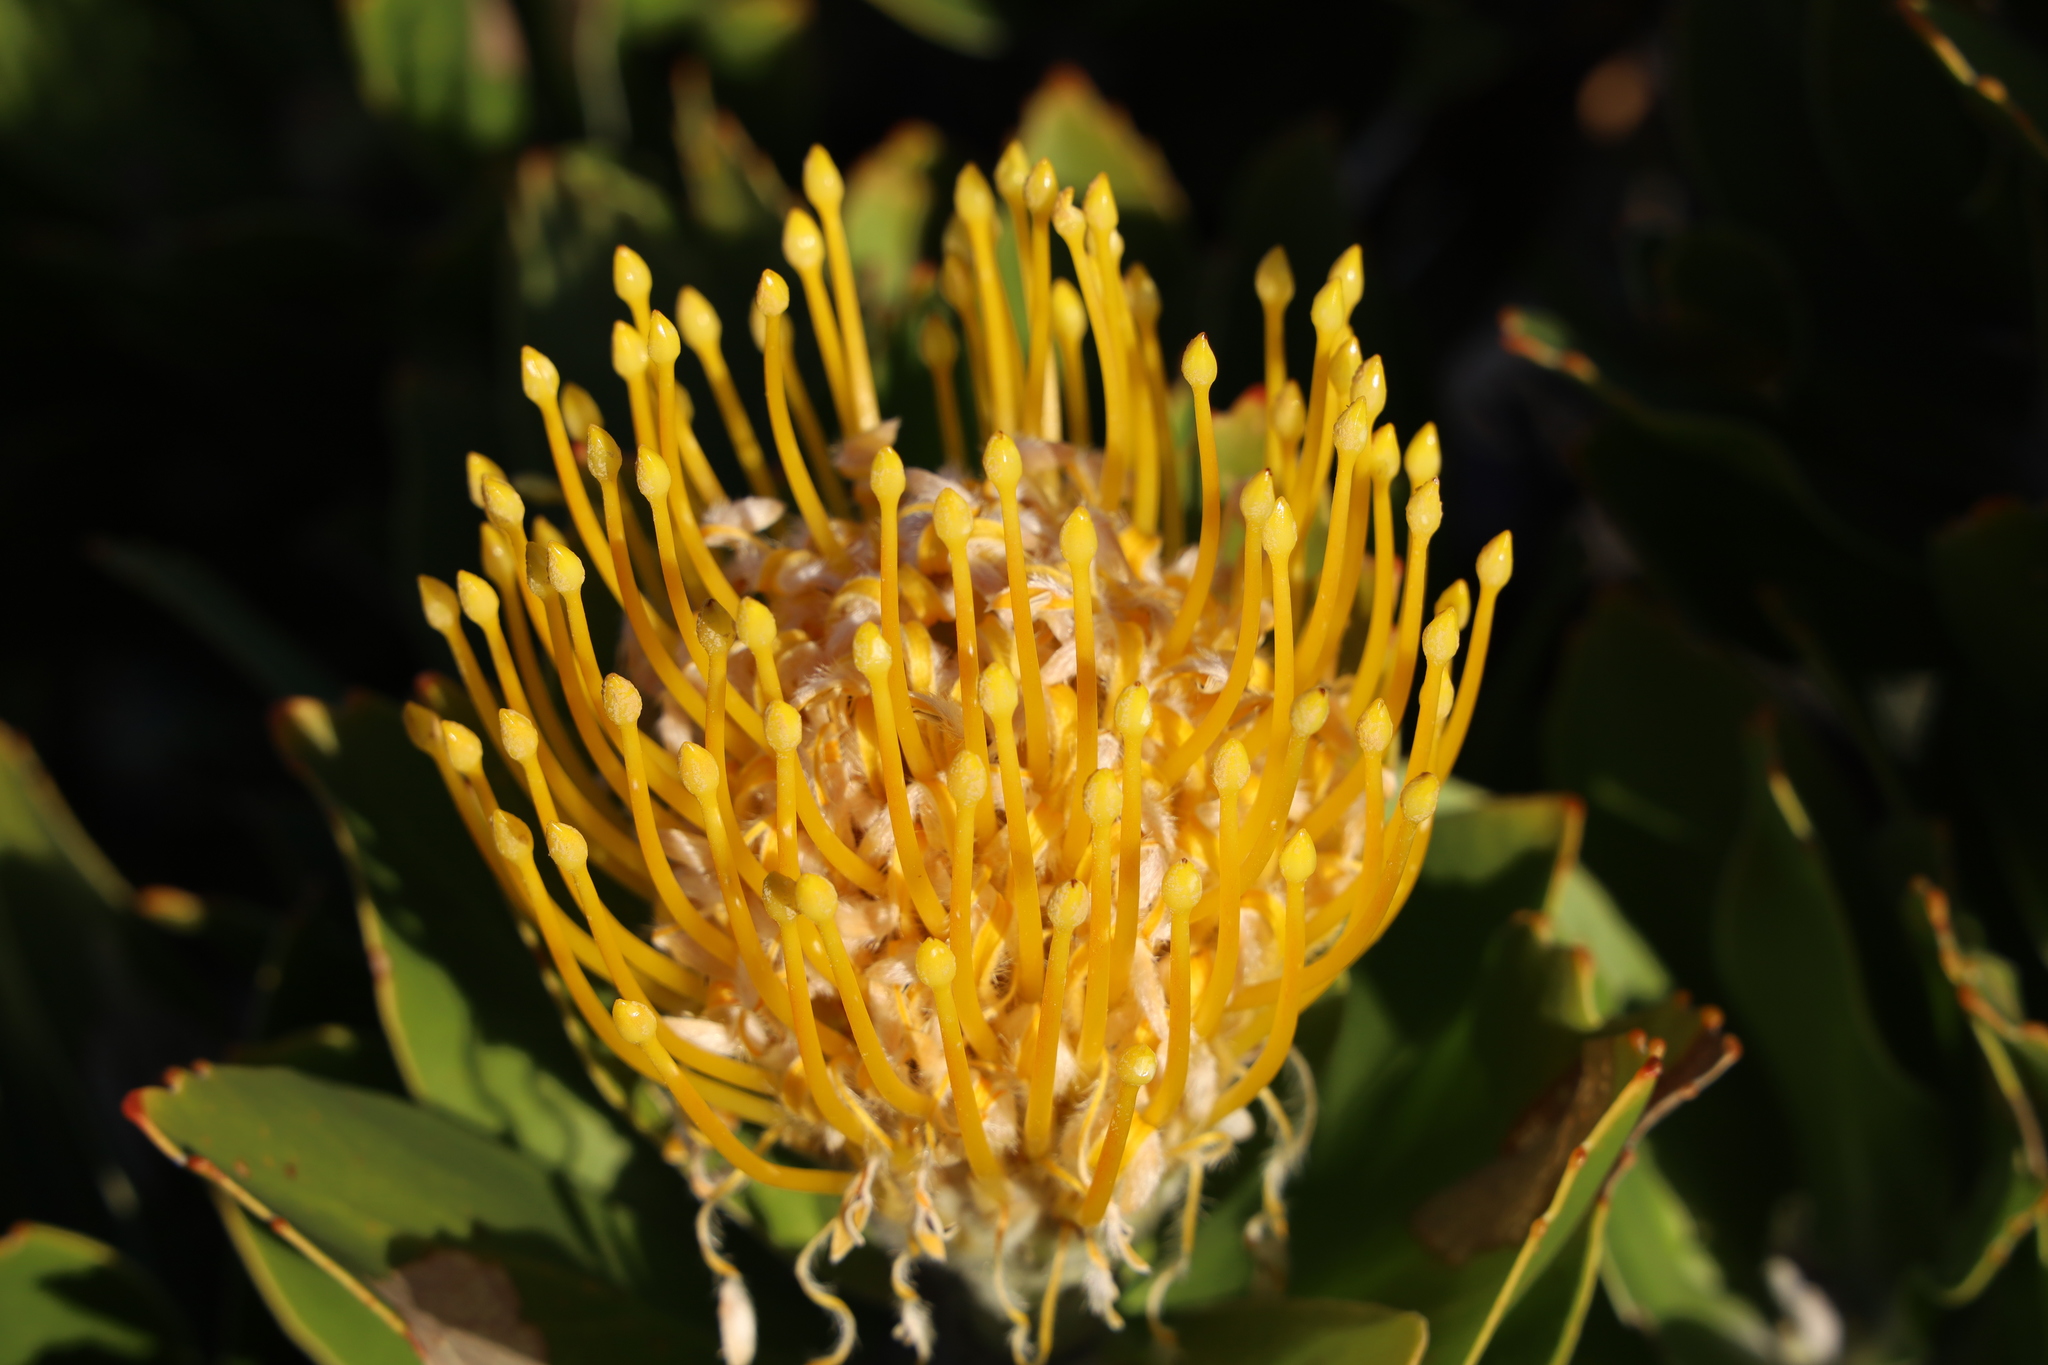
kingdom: Plantae
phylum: Tracheophyta
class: Magnoliopsida
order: Proteales
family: Proteaceae
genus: Leucospermum
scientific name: Leucospermum conocarpodendron
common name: Tree pincushion
